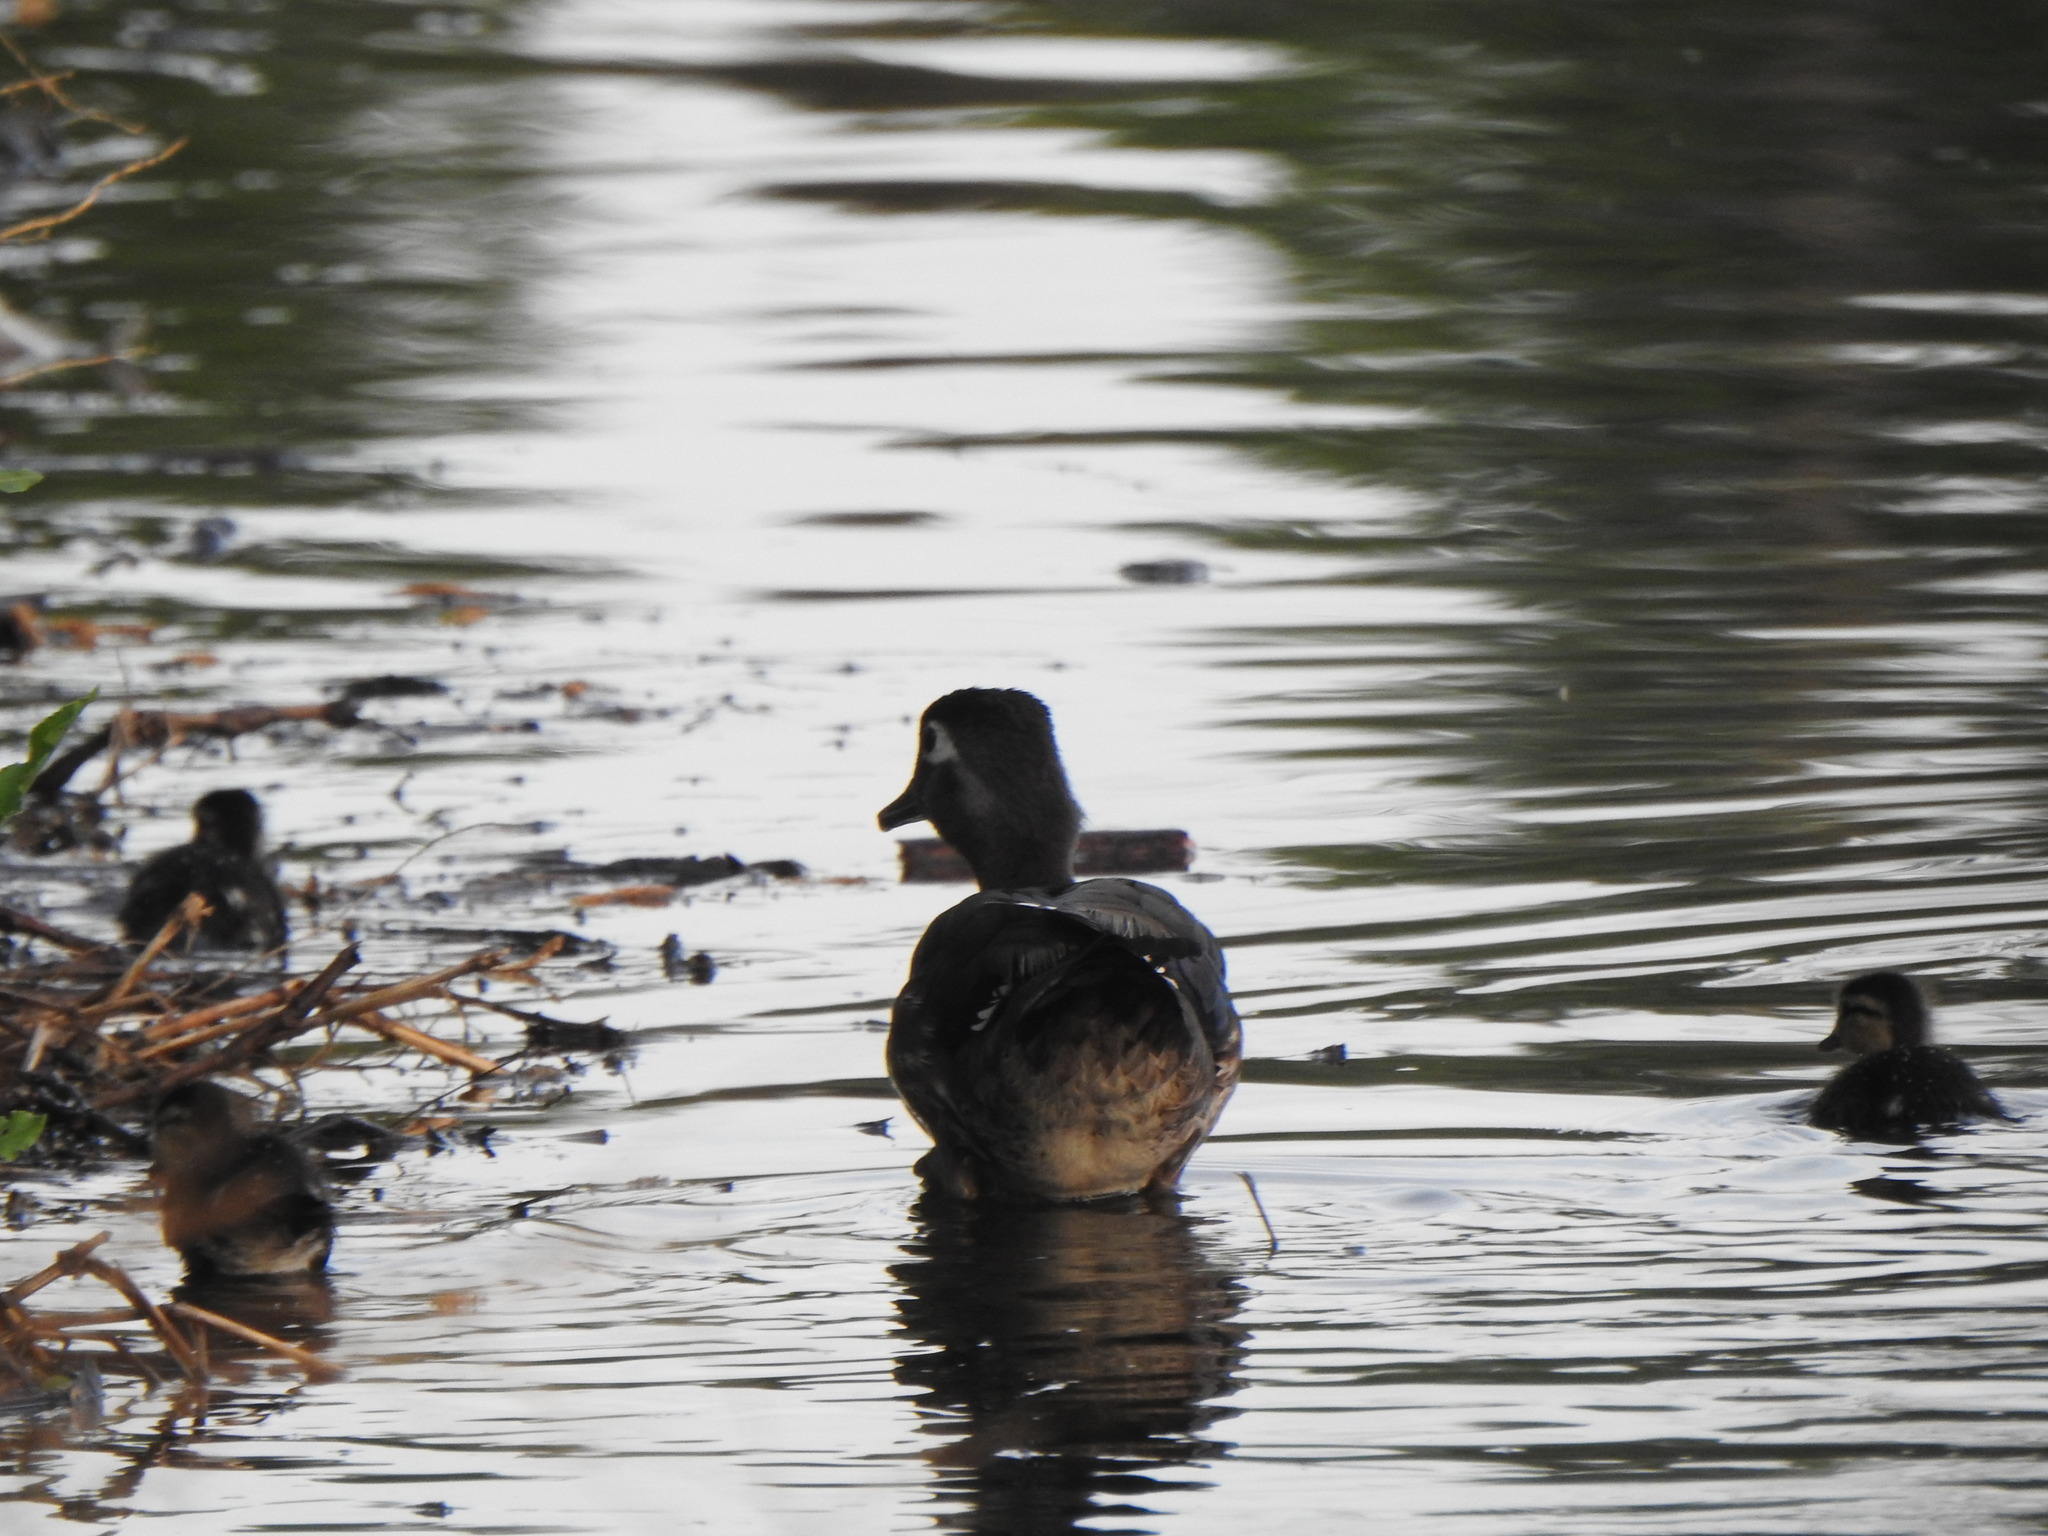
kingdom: Animalia
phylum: Chordata
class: Aves
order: Anseriformes
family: Anatidae
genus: Aix
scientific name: Aix sponsa
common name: Wood duck
